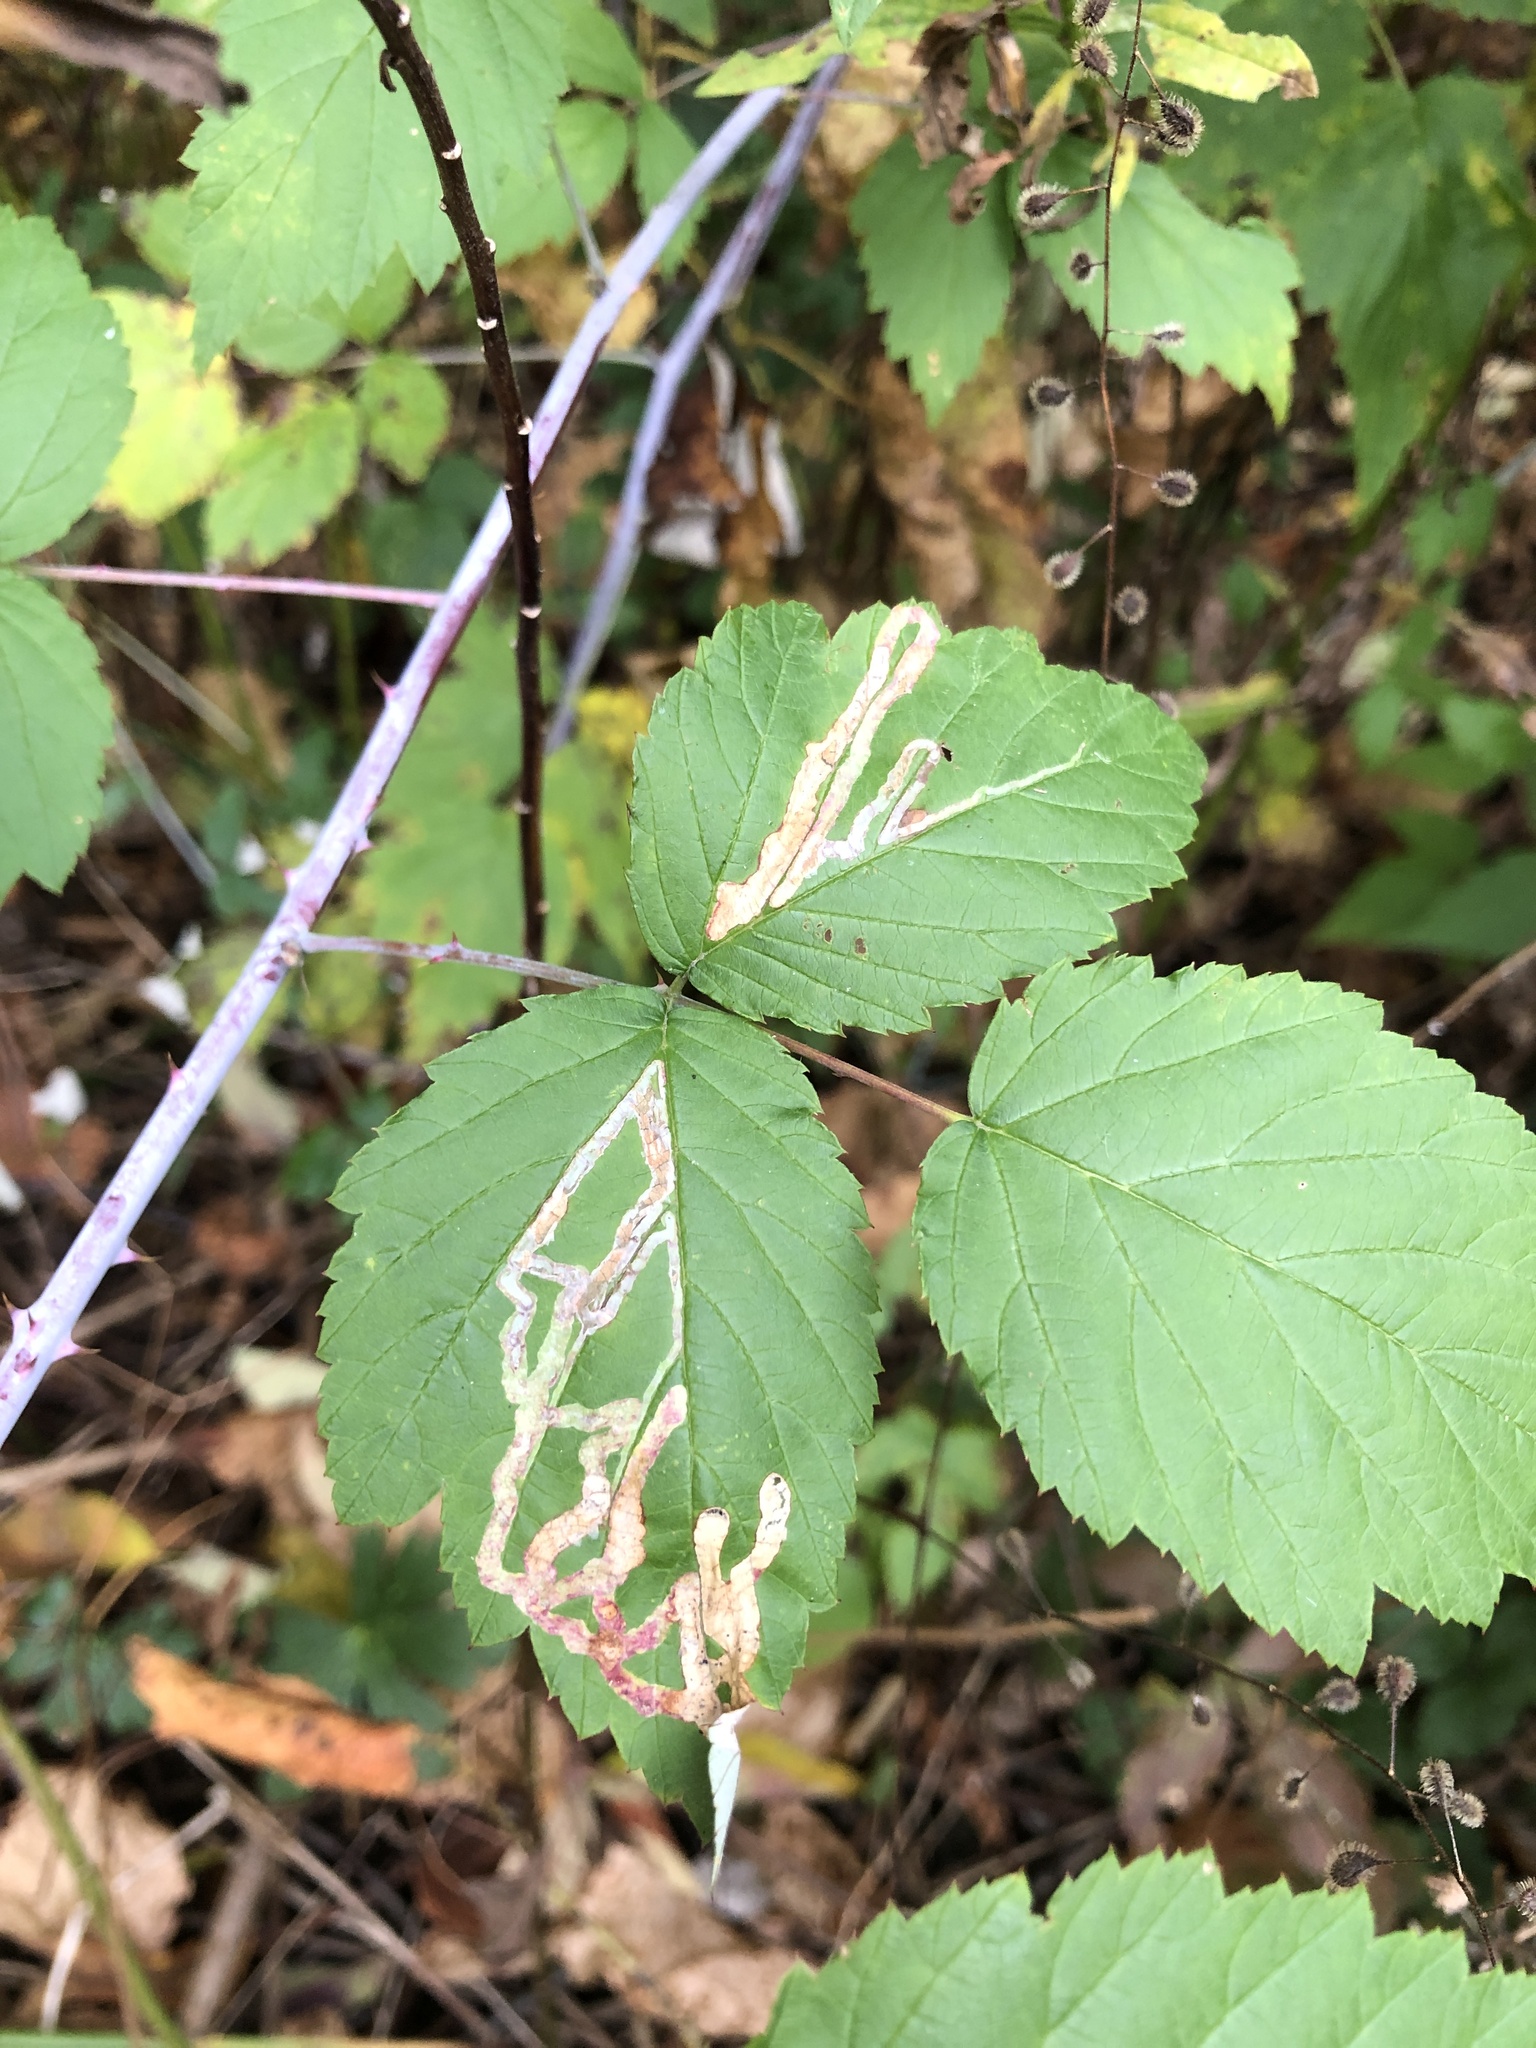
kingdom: Animalia
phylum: Arthropoda
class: Insecta
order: Diptera
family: Agromyzidae
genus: Agromyza
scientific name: Agromyza vockerothi
